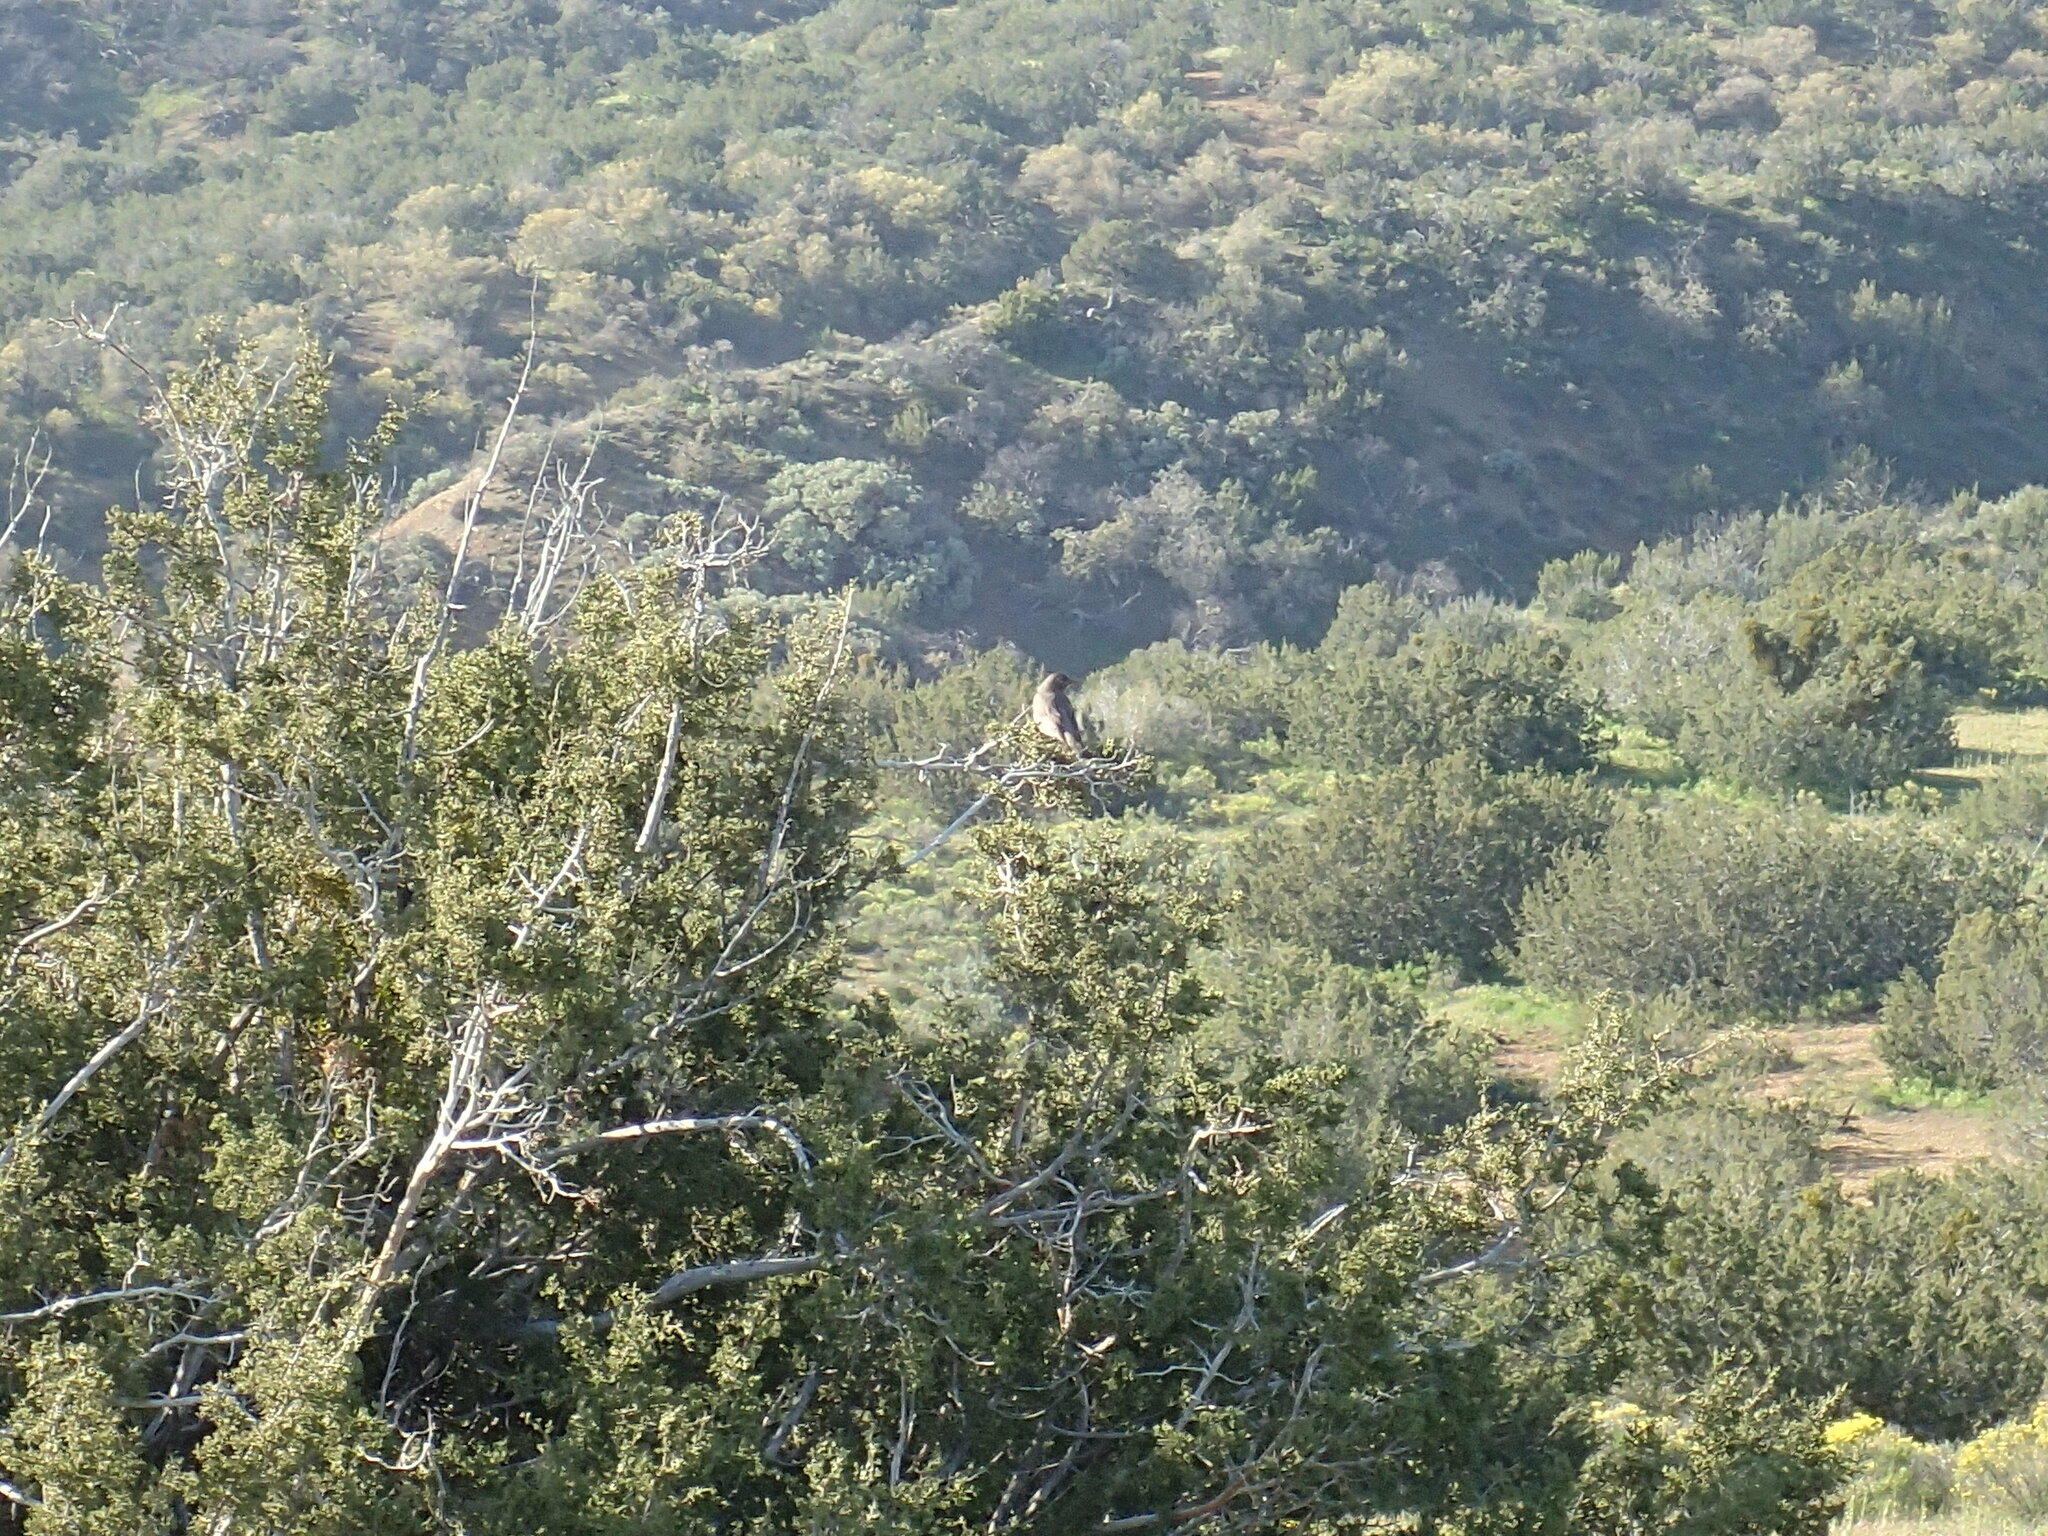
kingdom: Animalia
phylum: Chordata
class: Aves
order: Passeriformes
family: Turdidae
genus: Turdus
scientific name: Turdus migratorius
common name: American robin
